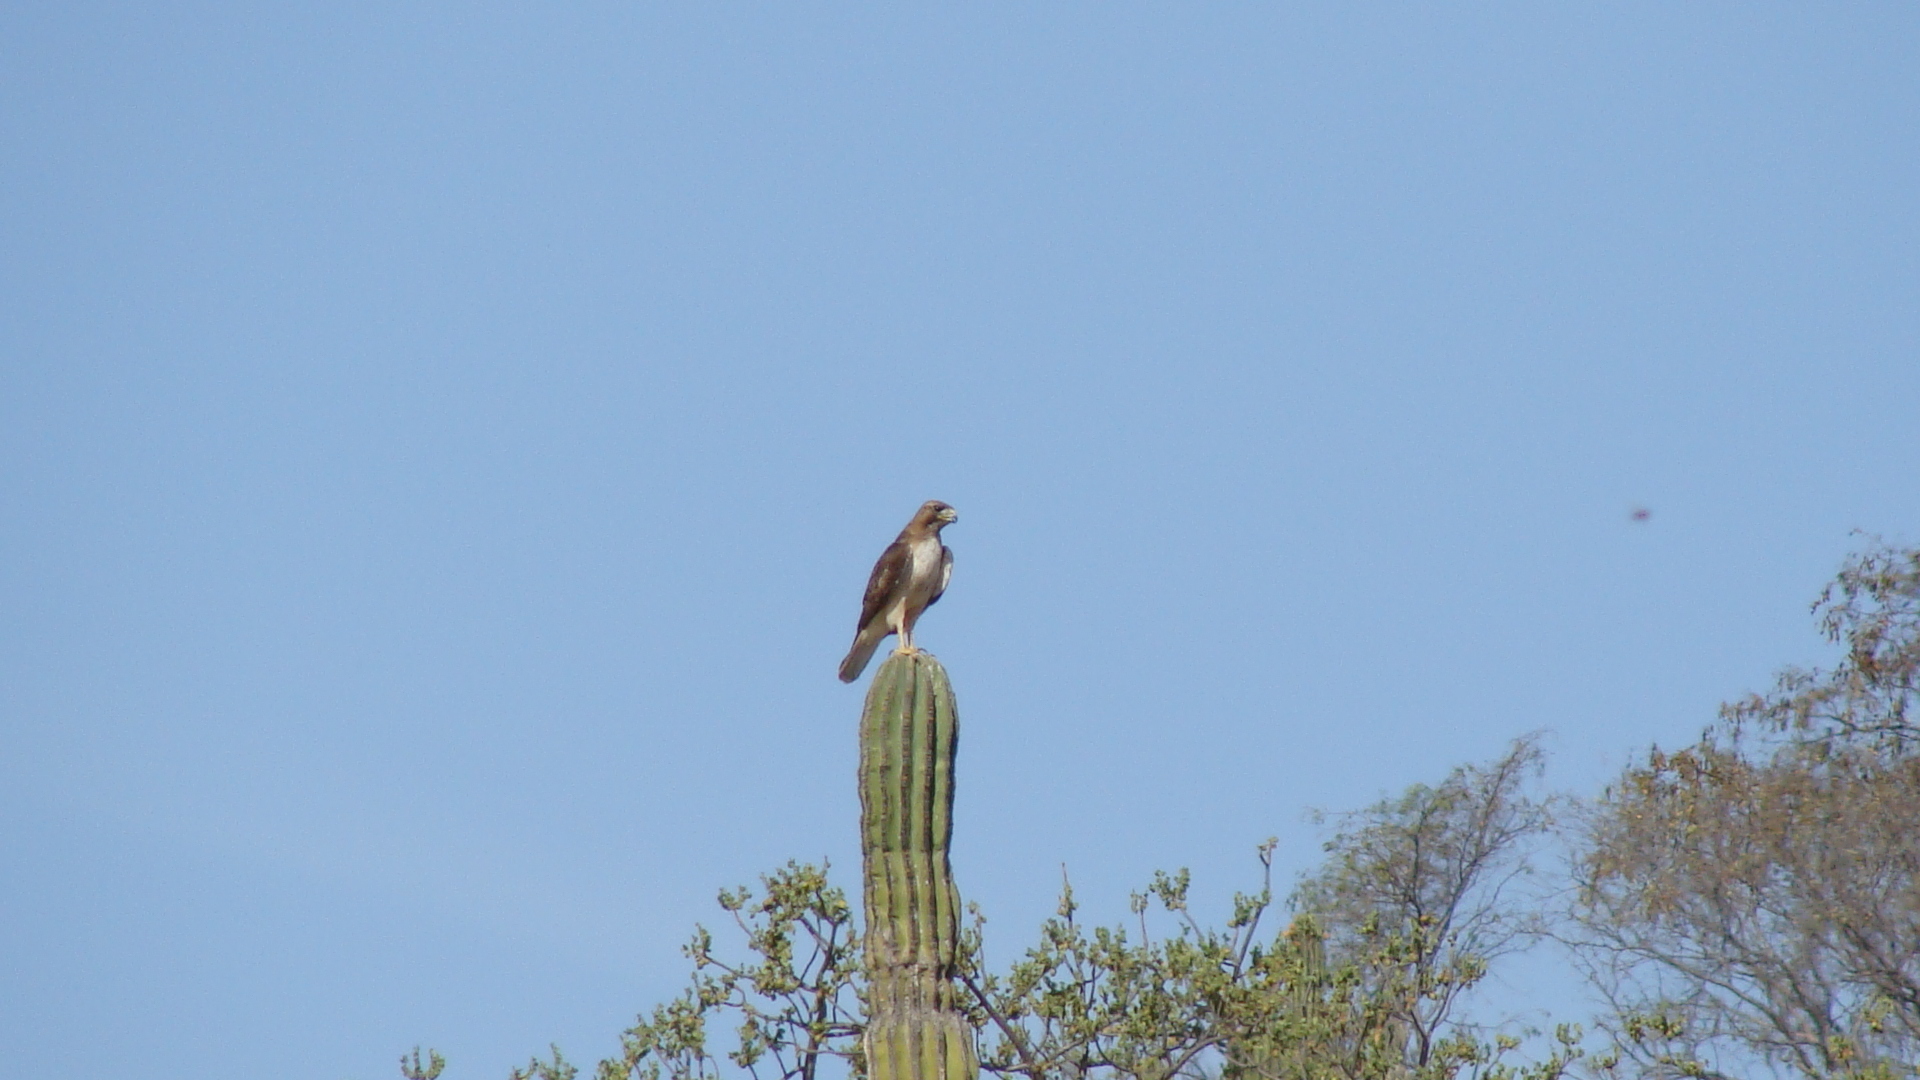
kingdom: Animalia
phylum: Chordata
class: Aves
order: Accipitriformes
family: Accipitridae
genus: Buteo
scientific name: Buteo jamaicensis
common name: Red-tailed hawk
